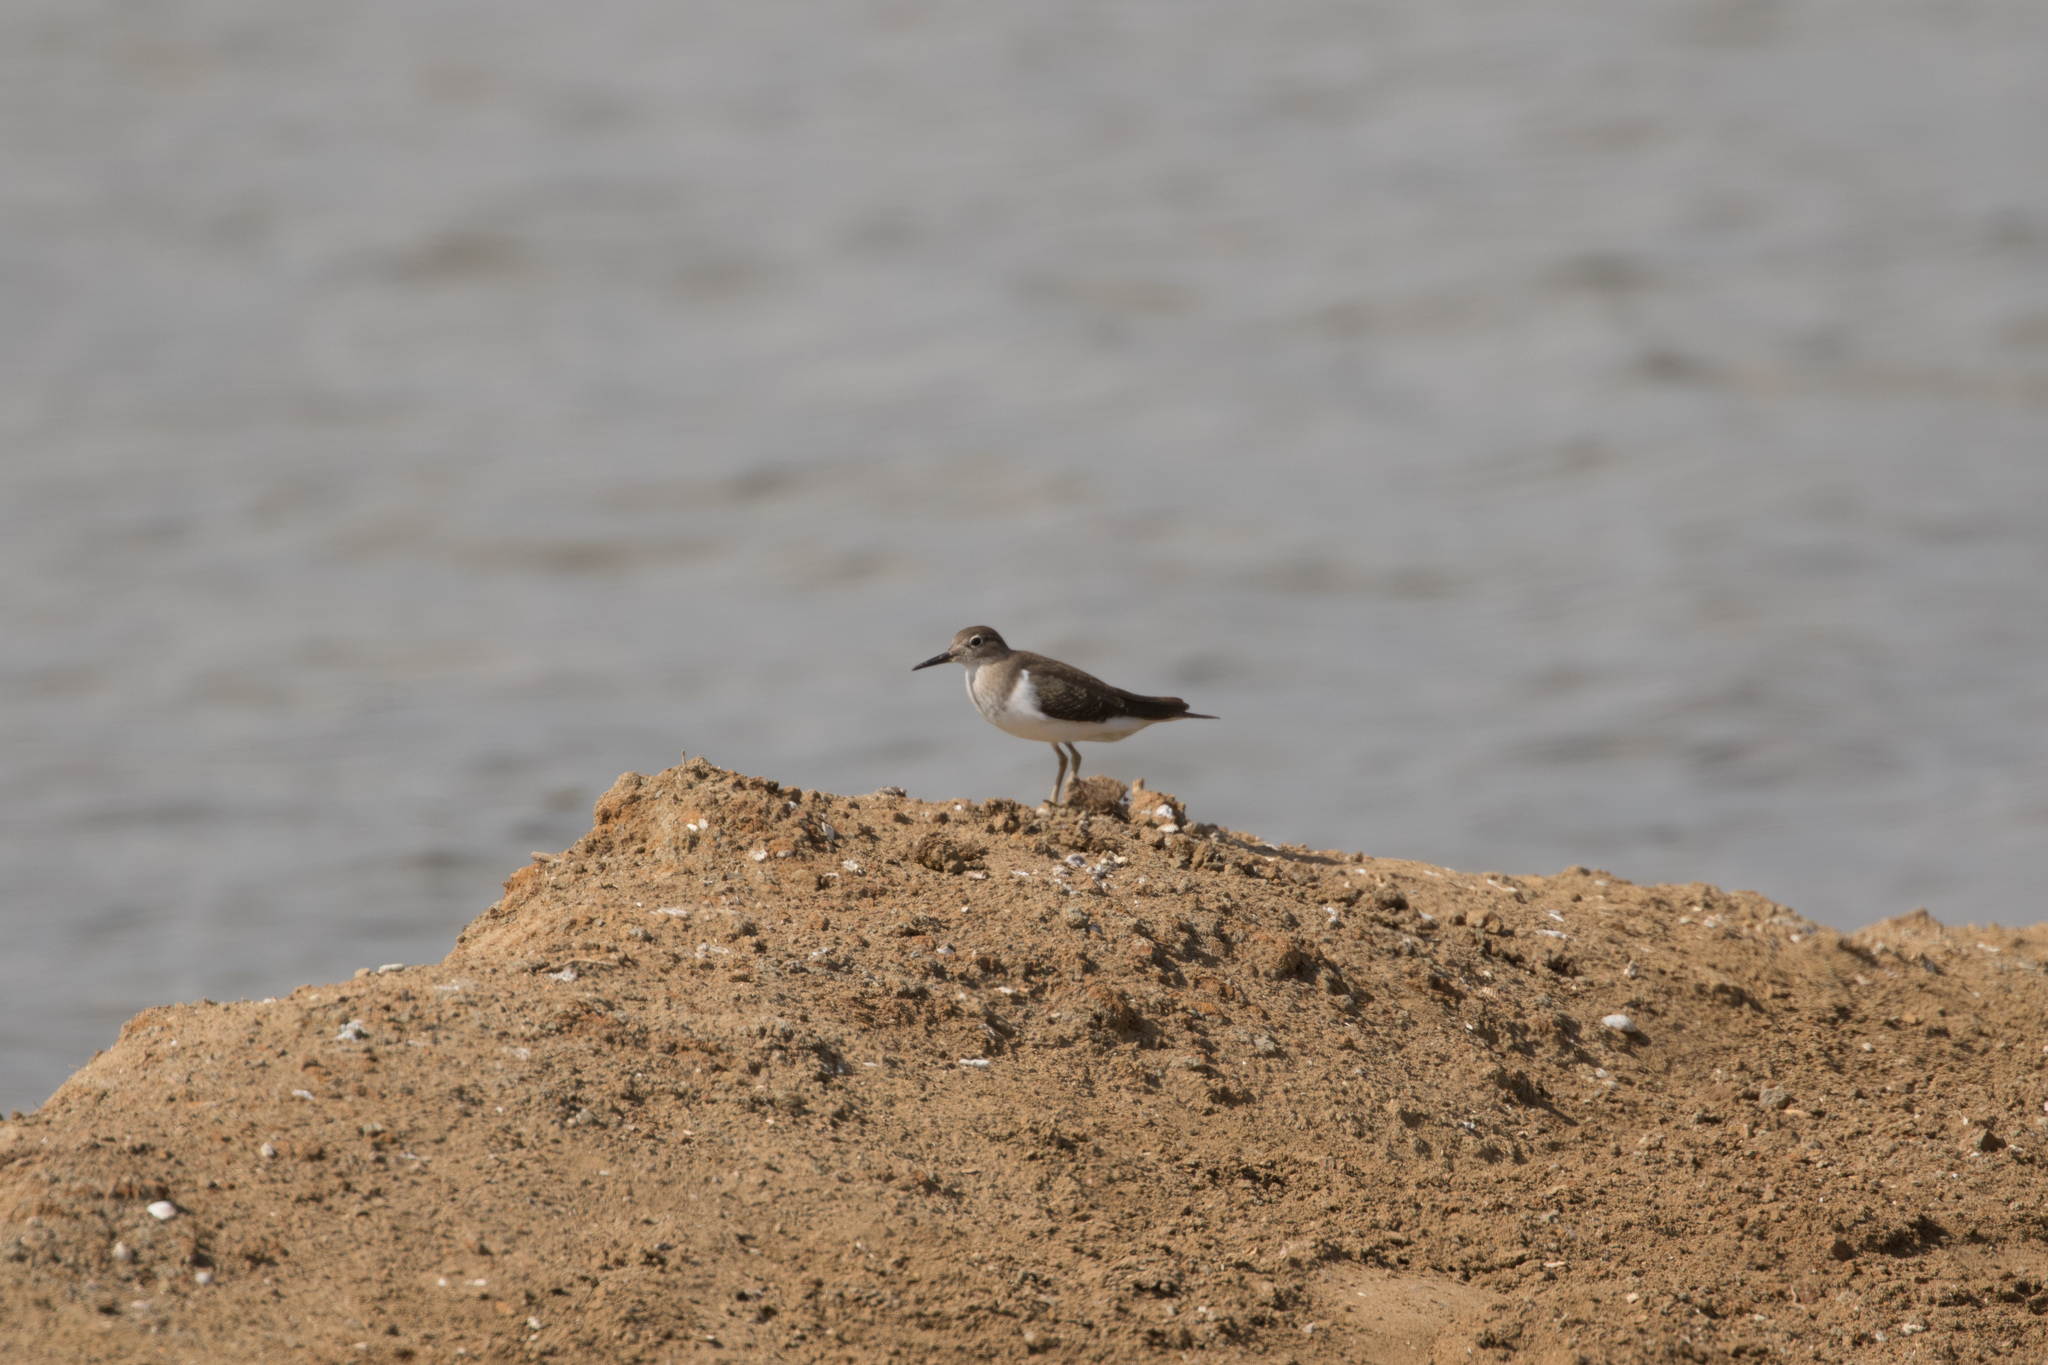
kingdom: Animalia
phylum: Chordata
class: Aves
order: Charadriiformes
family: Scolopacidae
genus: Actitis
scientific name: Actitis hypoleucos
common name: Common sandpiper
